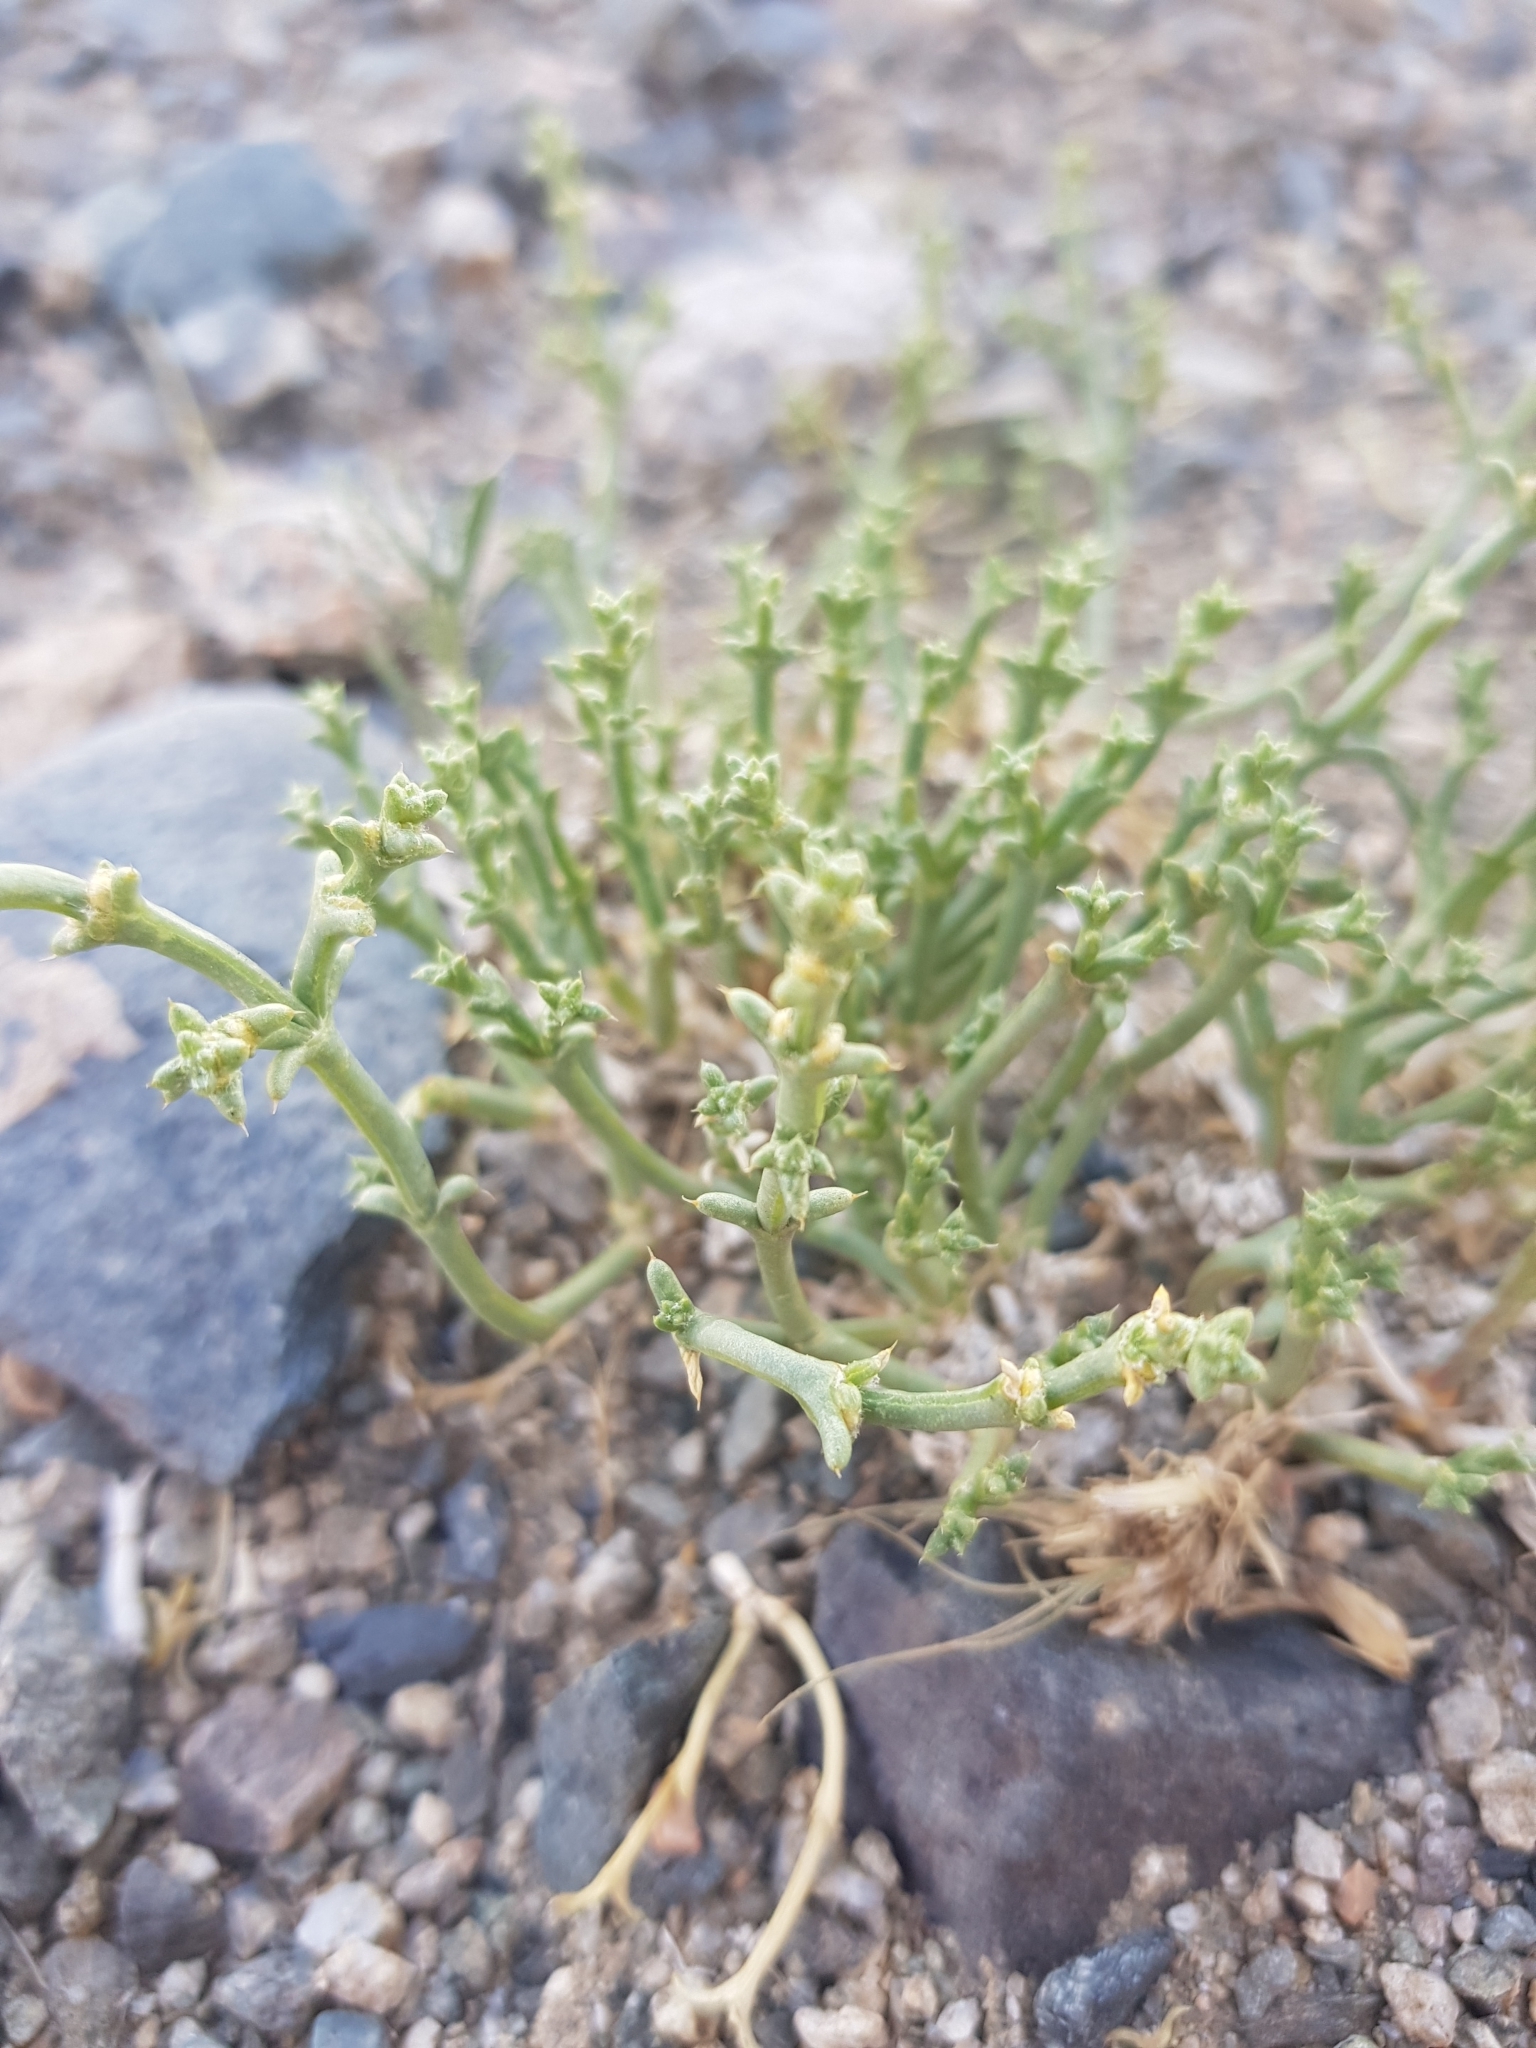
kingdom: Plantae
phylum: Tracheophyta
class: Magnoliopsida
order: Caryophyllales
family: Amaranthaceae
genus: Anabasis
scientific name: Anabasis brevifolia
